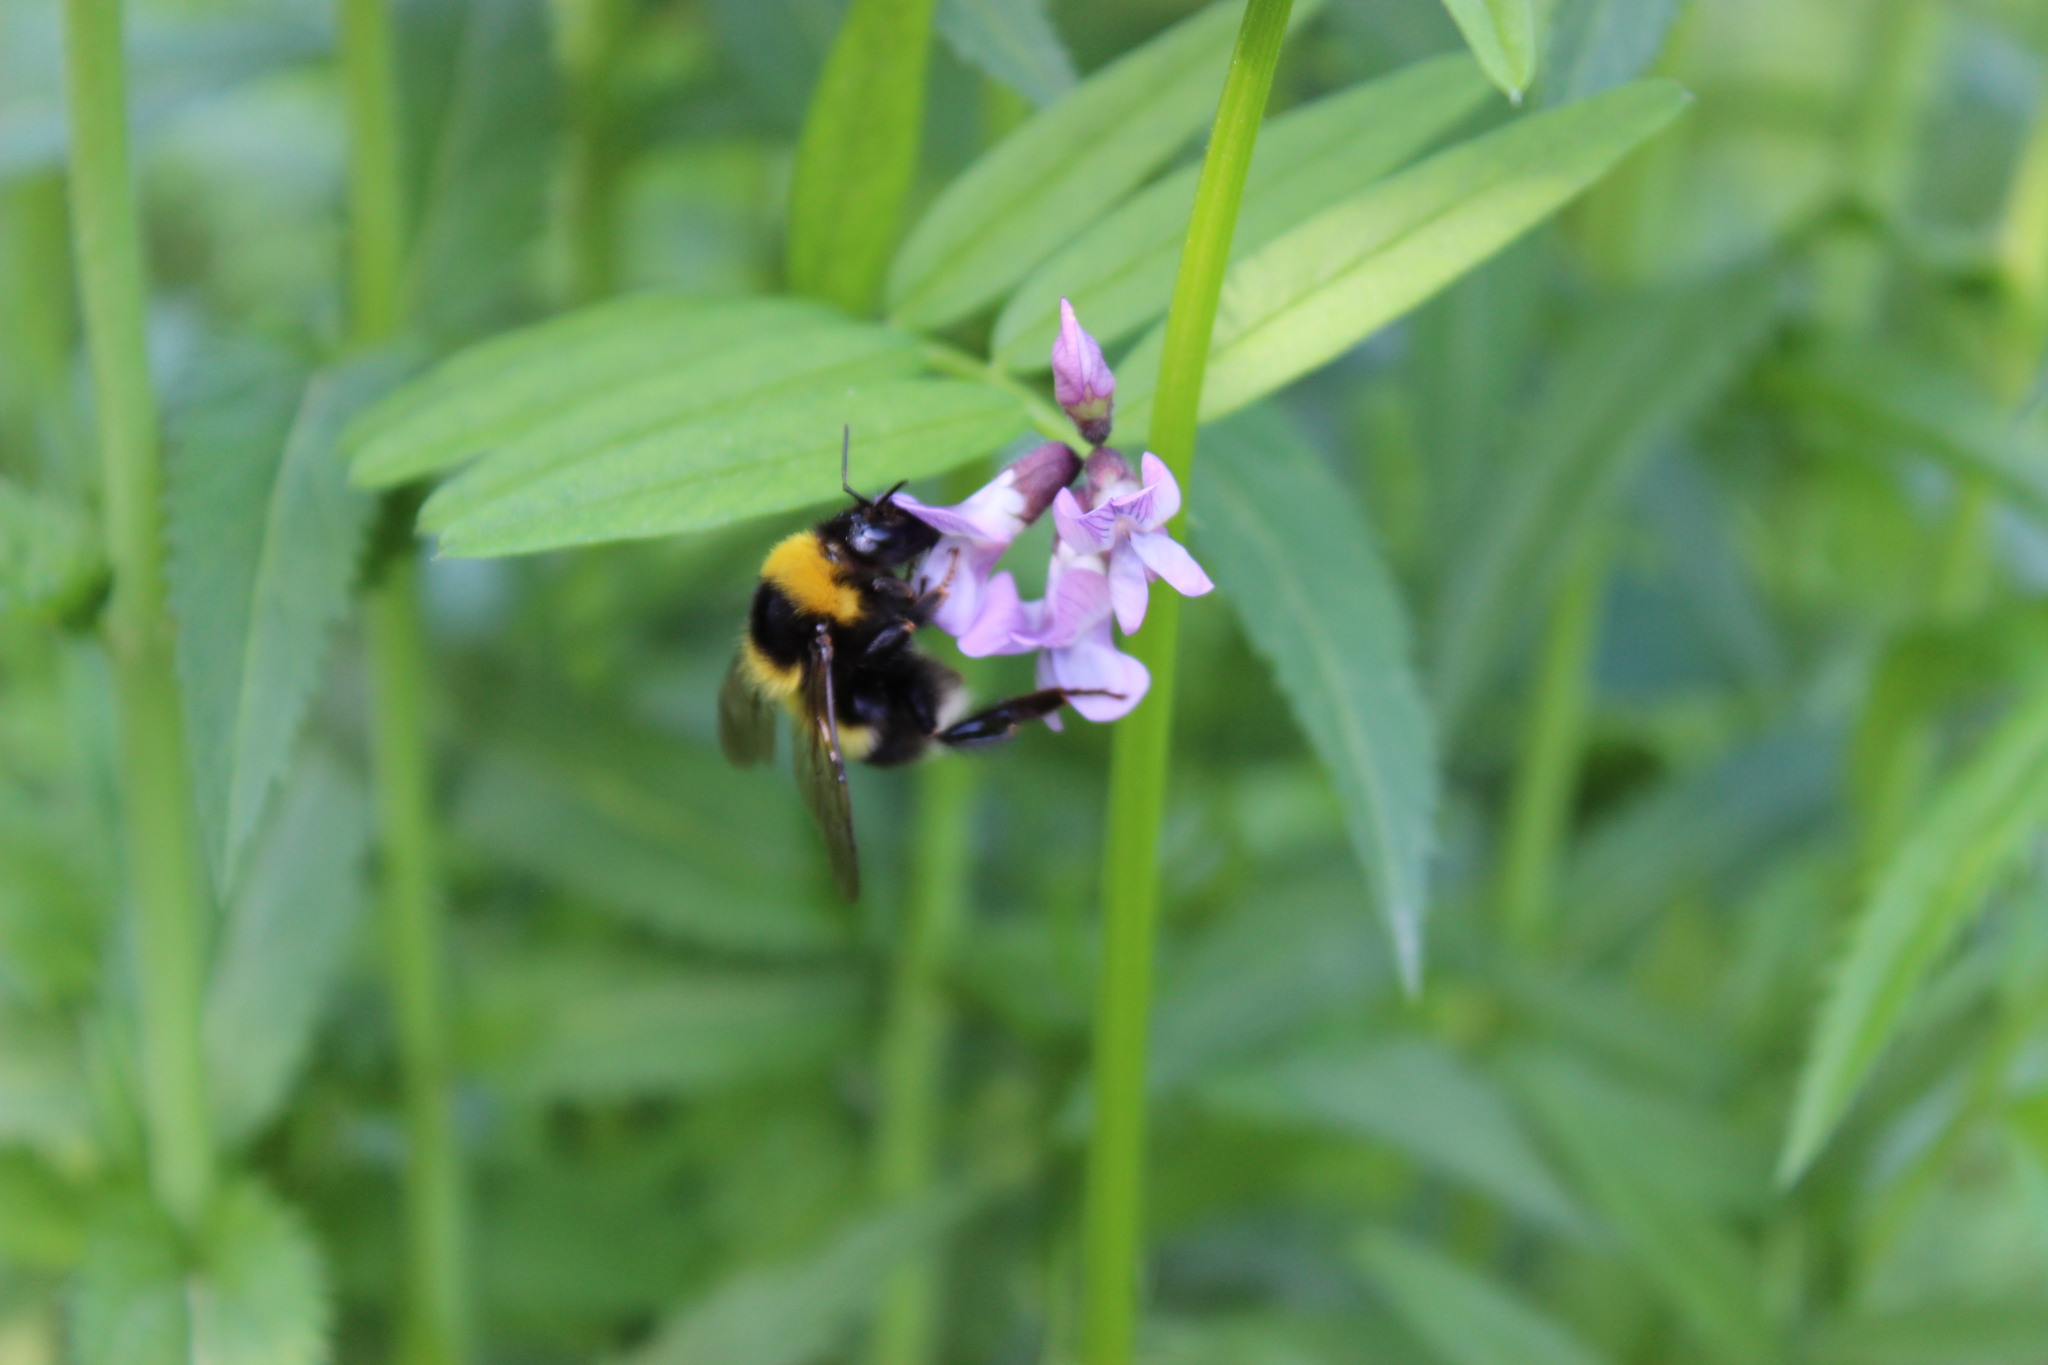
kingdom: Animalia
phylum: Arthropoda
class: Insecta
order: Hymenoptera
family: Apidae
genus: Bombus
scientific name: Bombus hortorum
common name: Garden bumblebee
